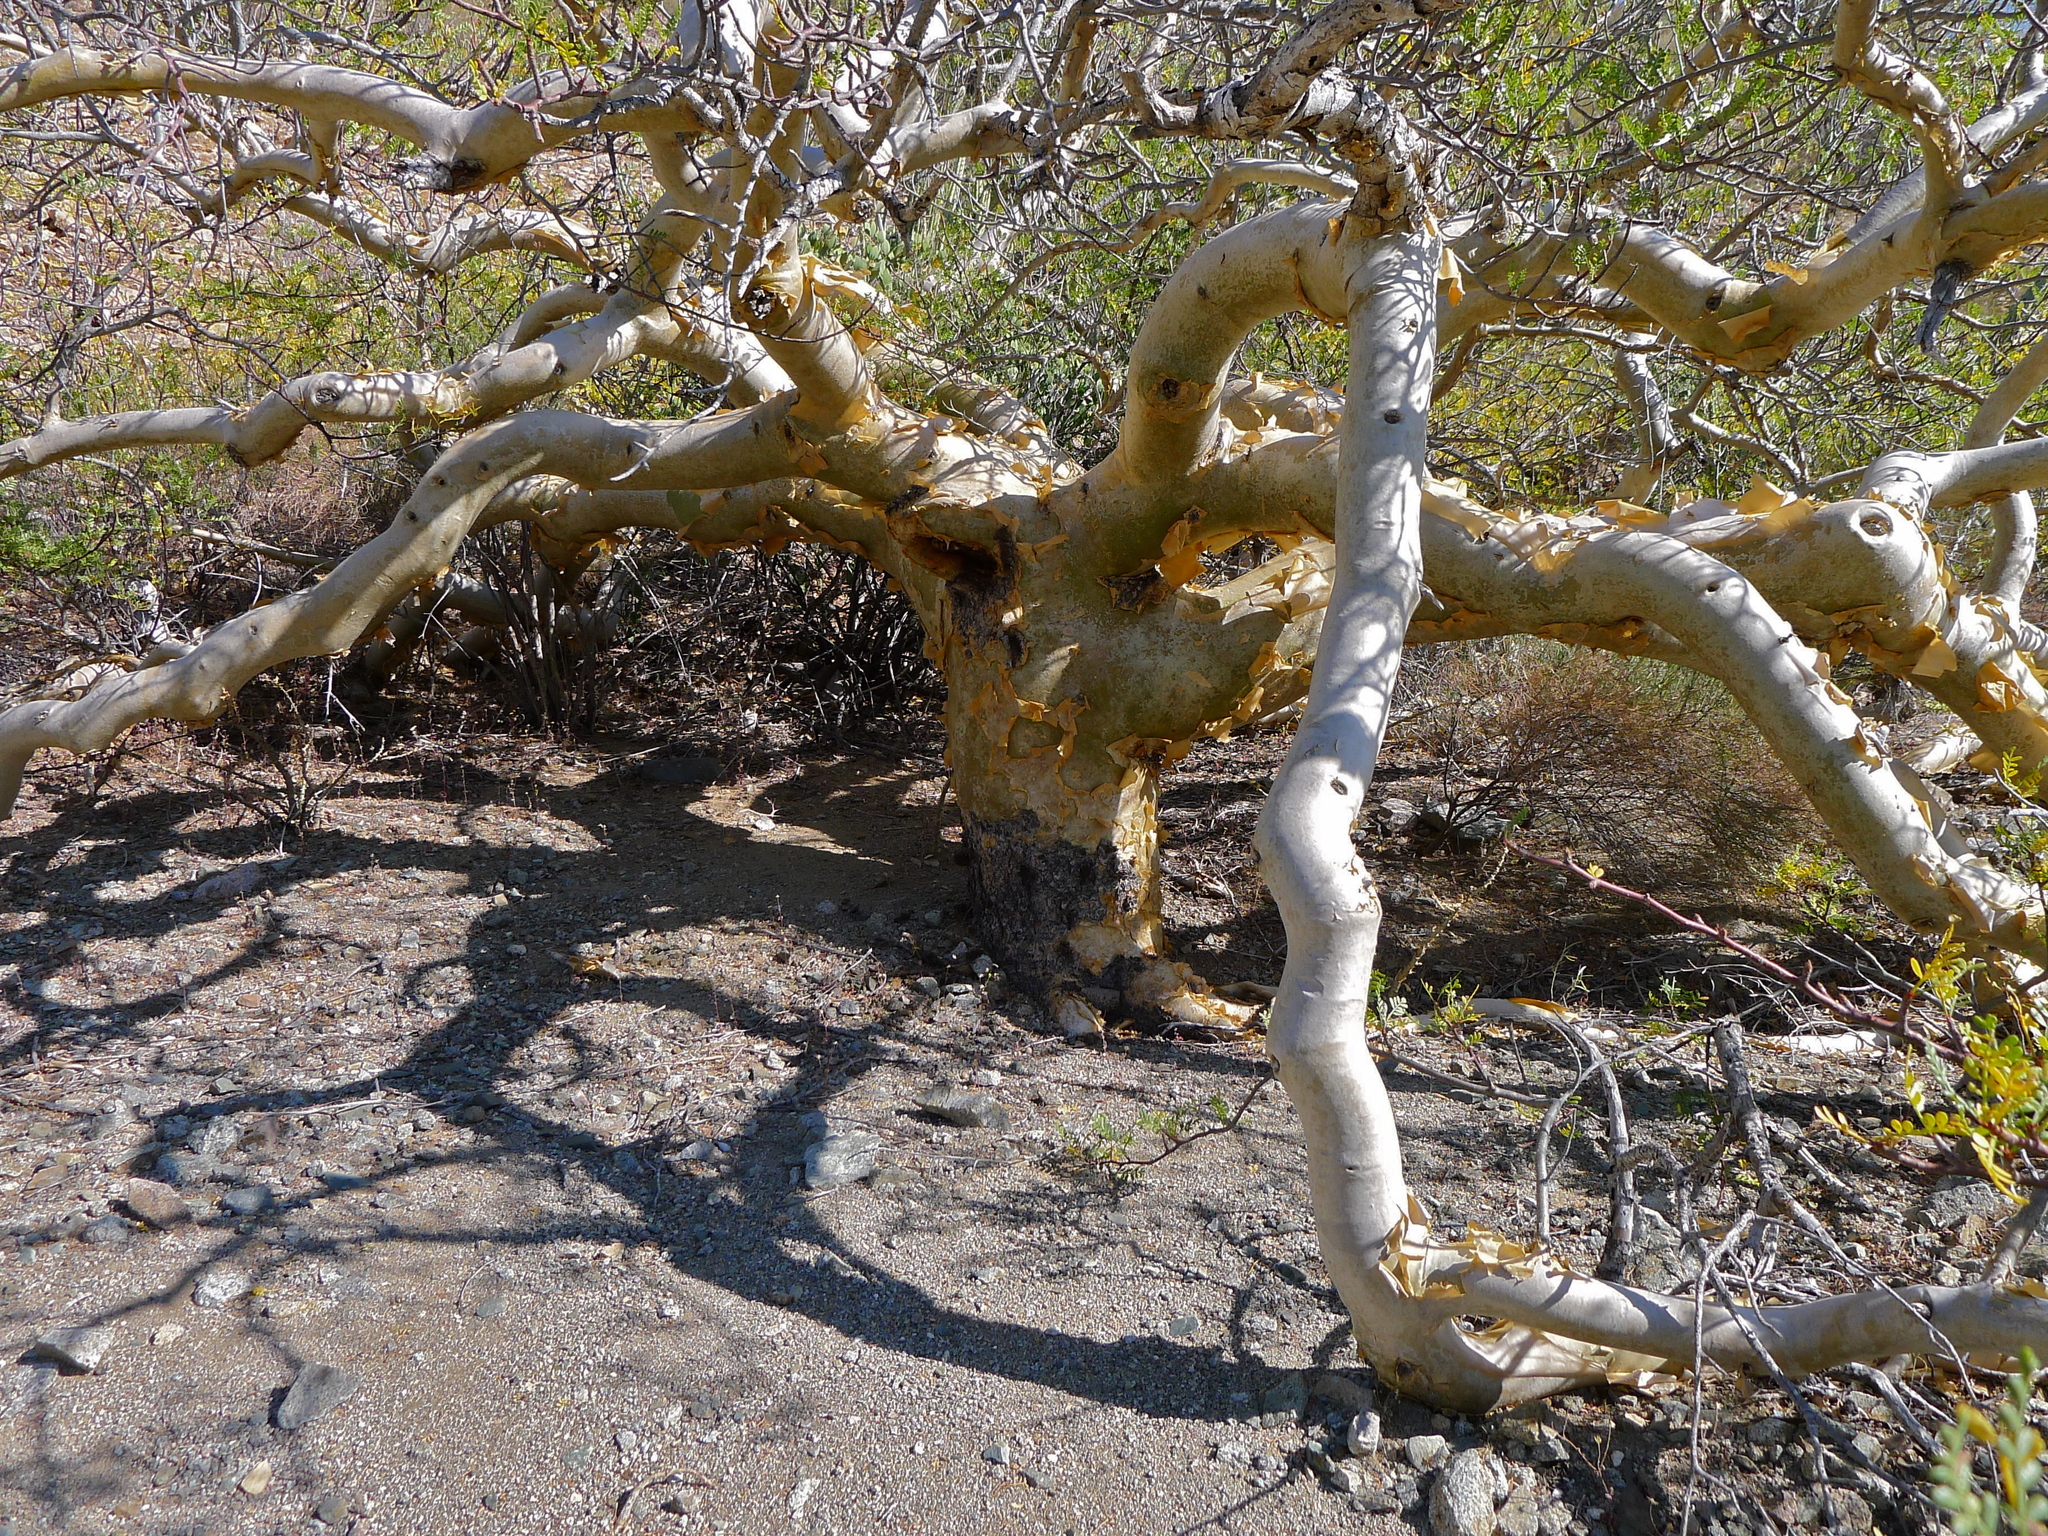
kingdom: Plantae
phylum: Tracheophyta
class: Magnoliopsida
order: Sapindales
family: Burseraceae
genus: Bursera
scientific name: Bursera microphylla
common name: Elephant tree
